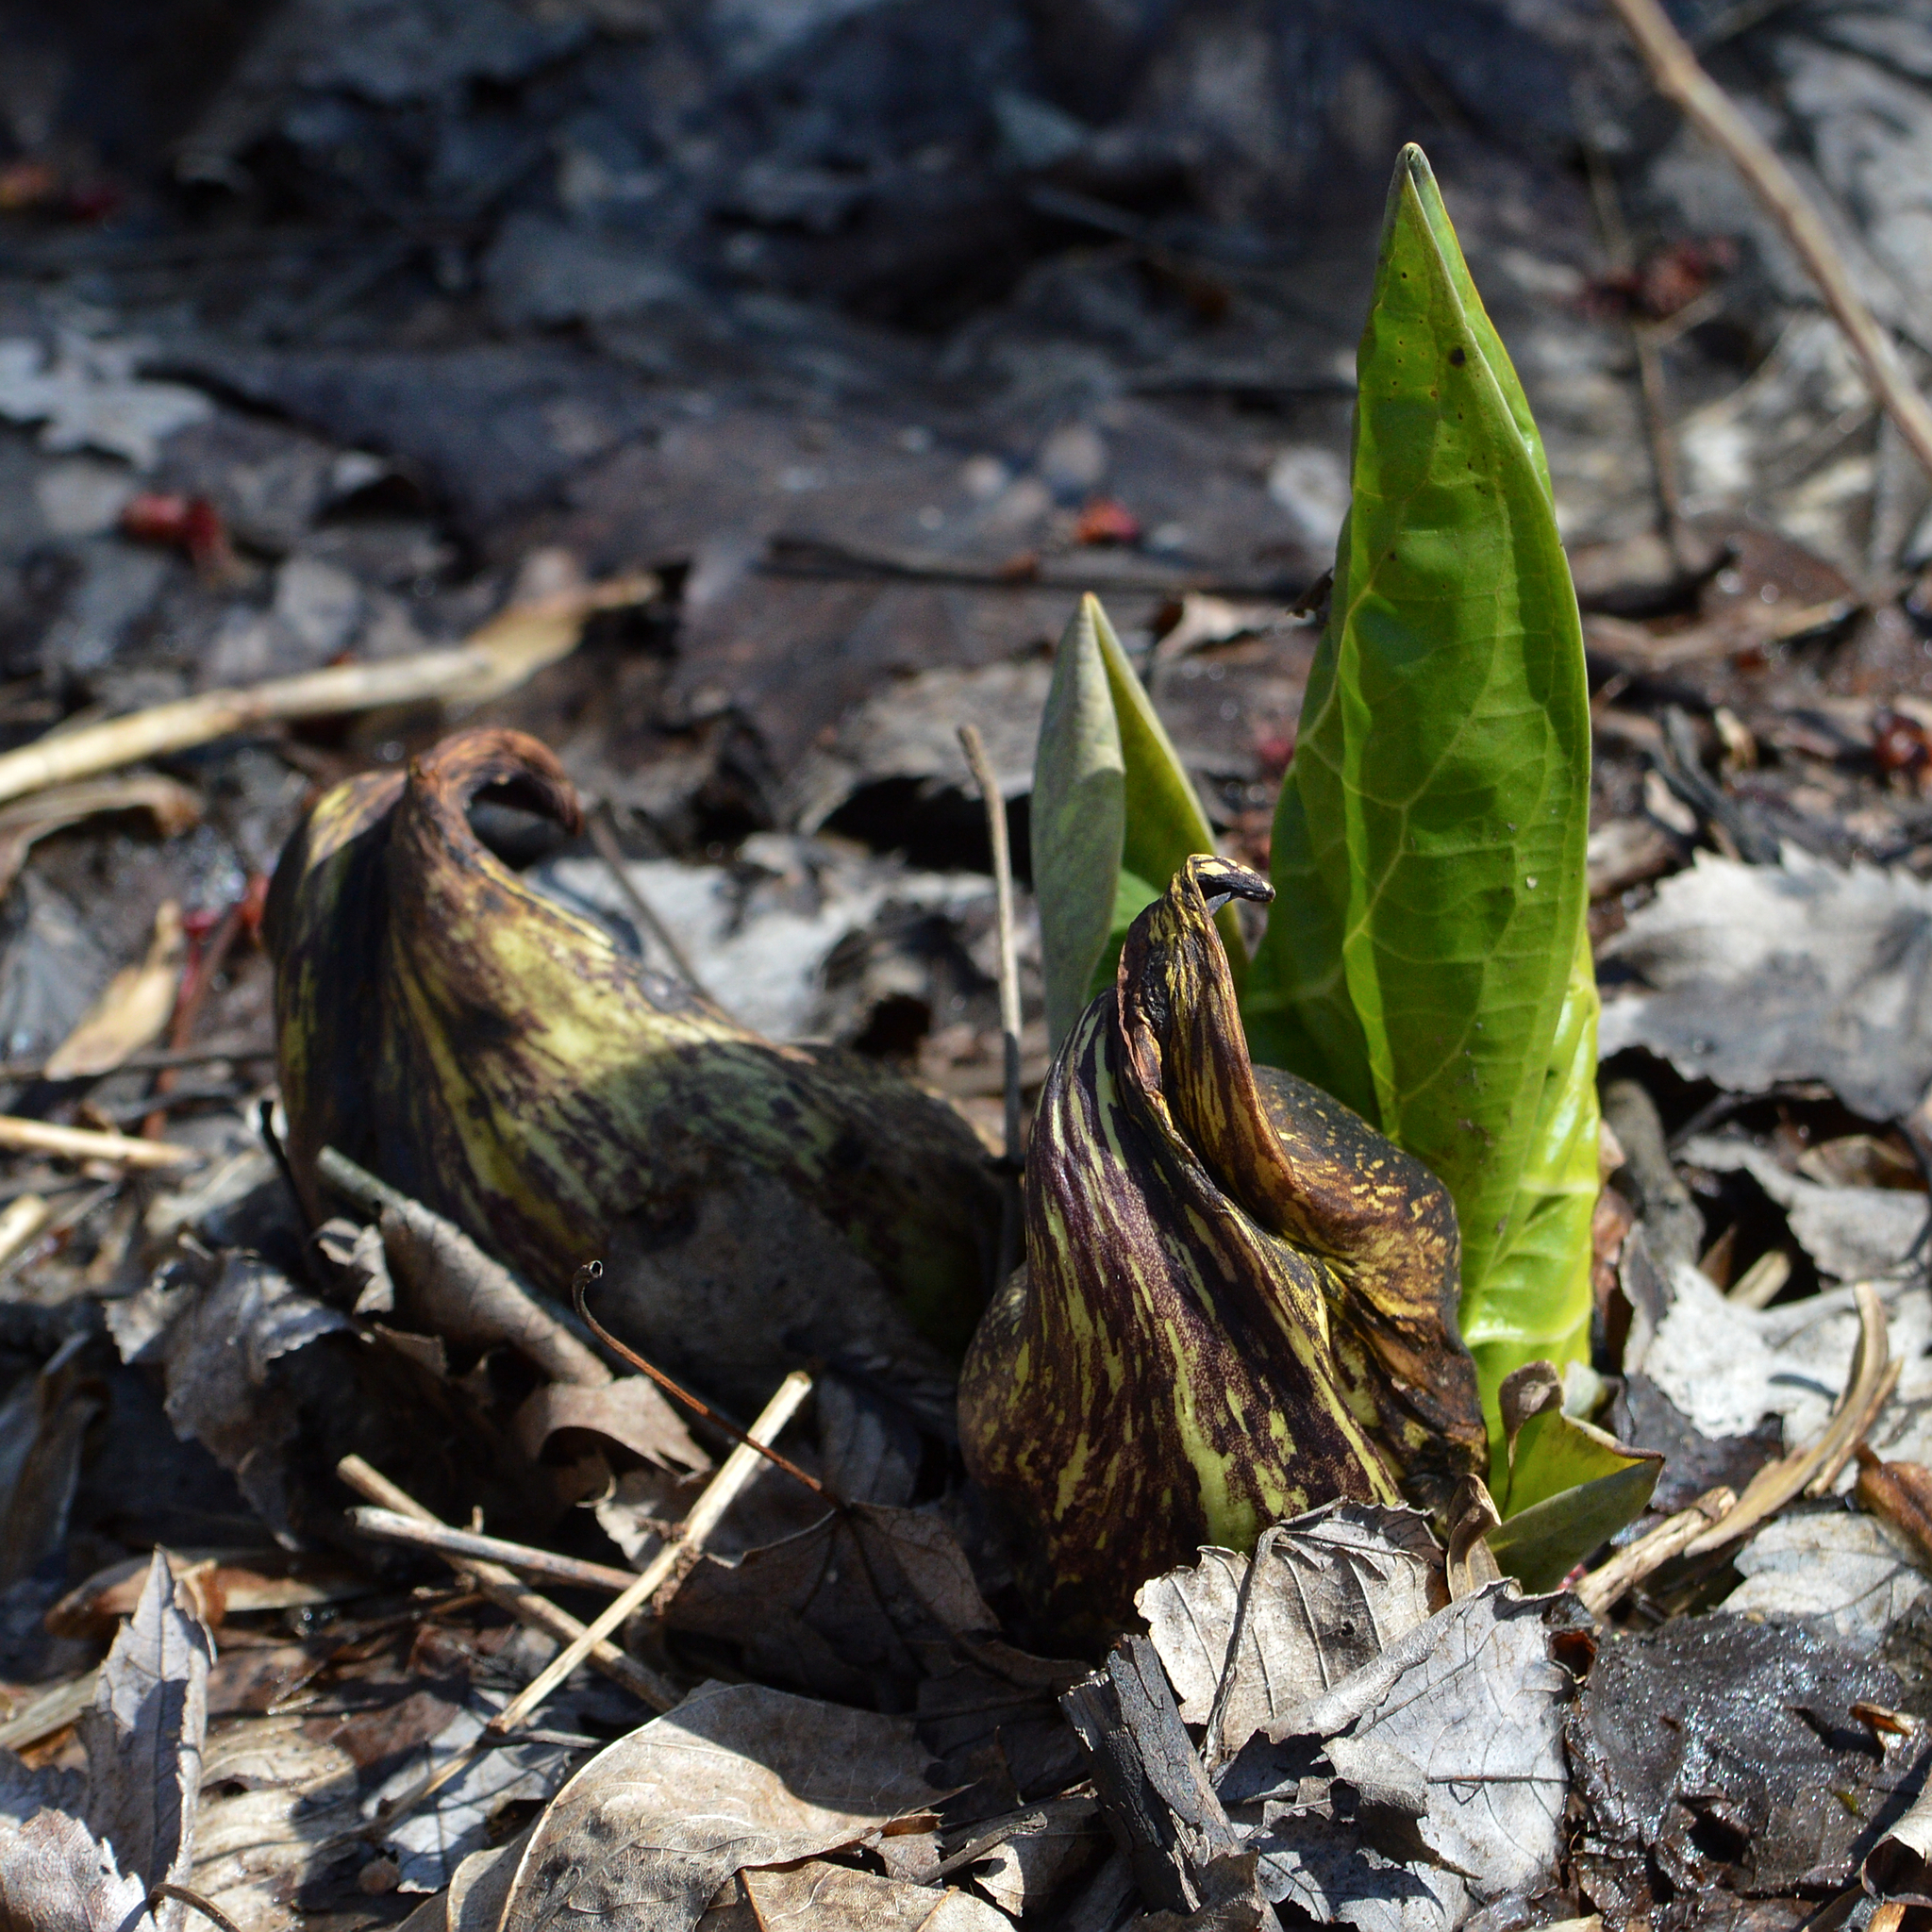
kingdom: Plantae
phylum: Tracheophyta
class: Liliopsida
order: Alismatales
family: Araceae
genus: Symplocarpus
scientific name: Symplocarpus foetidus
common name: Eastern skunk cabbage
